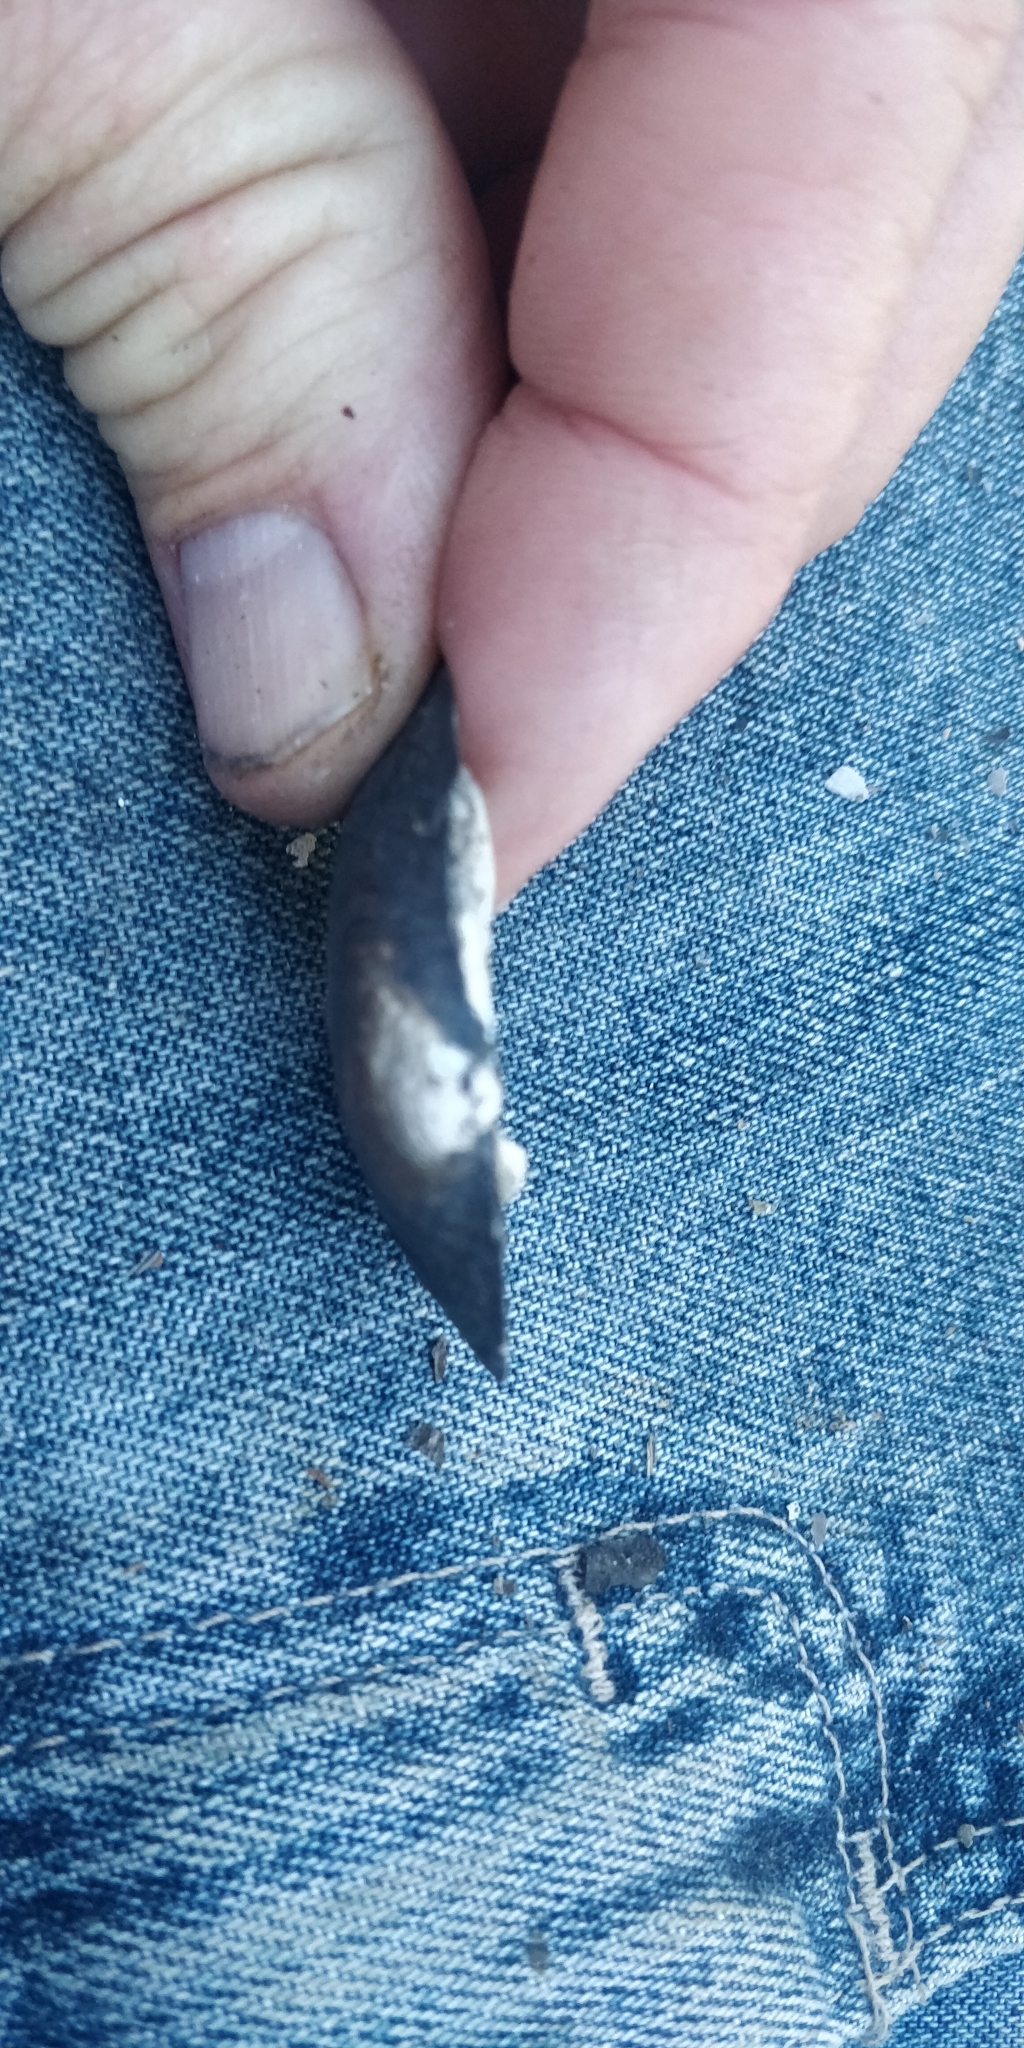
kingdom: Animalia
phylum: Mollusca
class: Bivalvia
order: Unionida
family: Unionidae
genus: Fusconaia
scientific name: Fusconaia flava
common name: Wabash pigtoe
